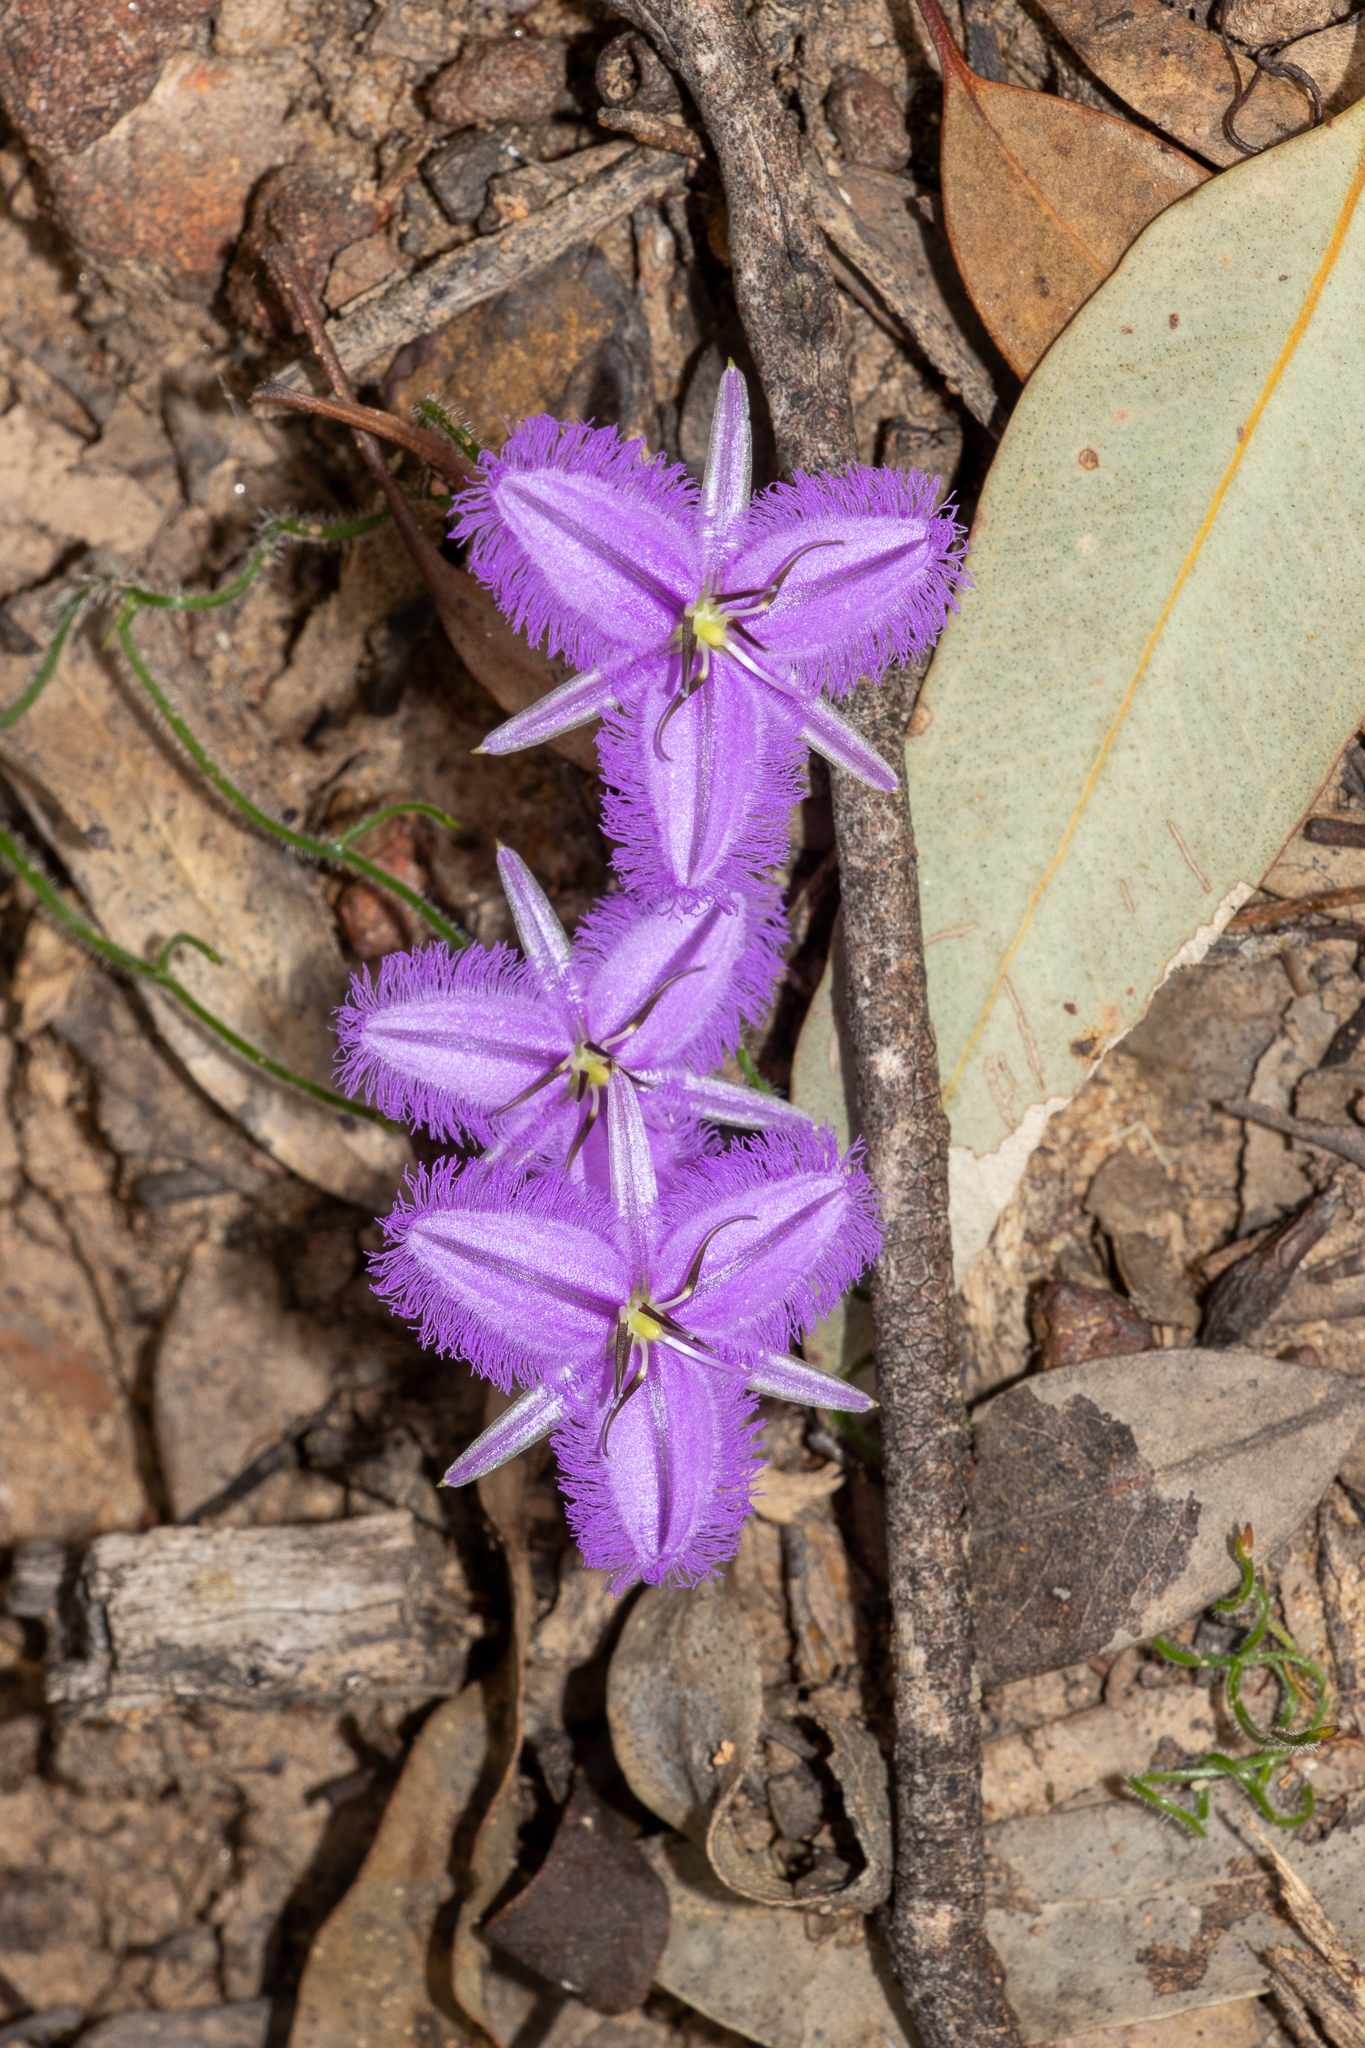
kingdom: Plantae
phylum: Tracheophyta
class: Liliopsida
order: Asparagales
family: Asparagaceae
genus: Thysanotus
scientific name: Thysanotus patersonii
